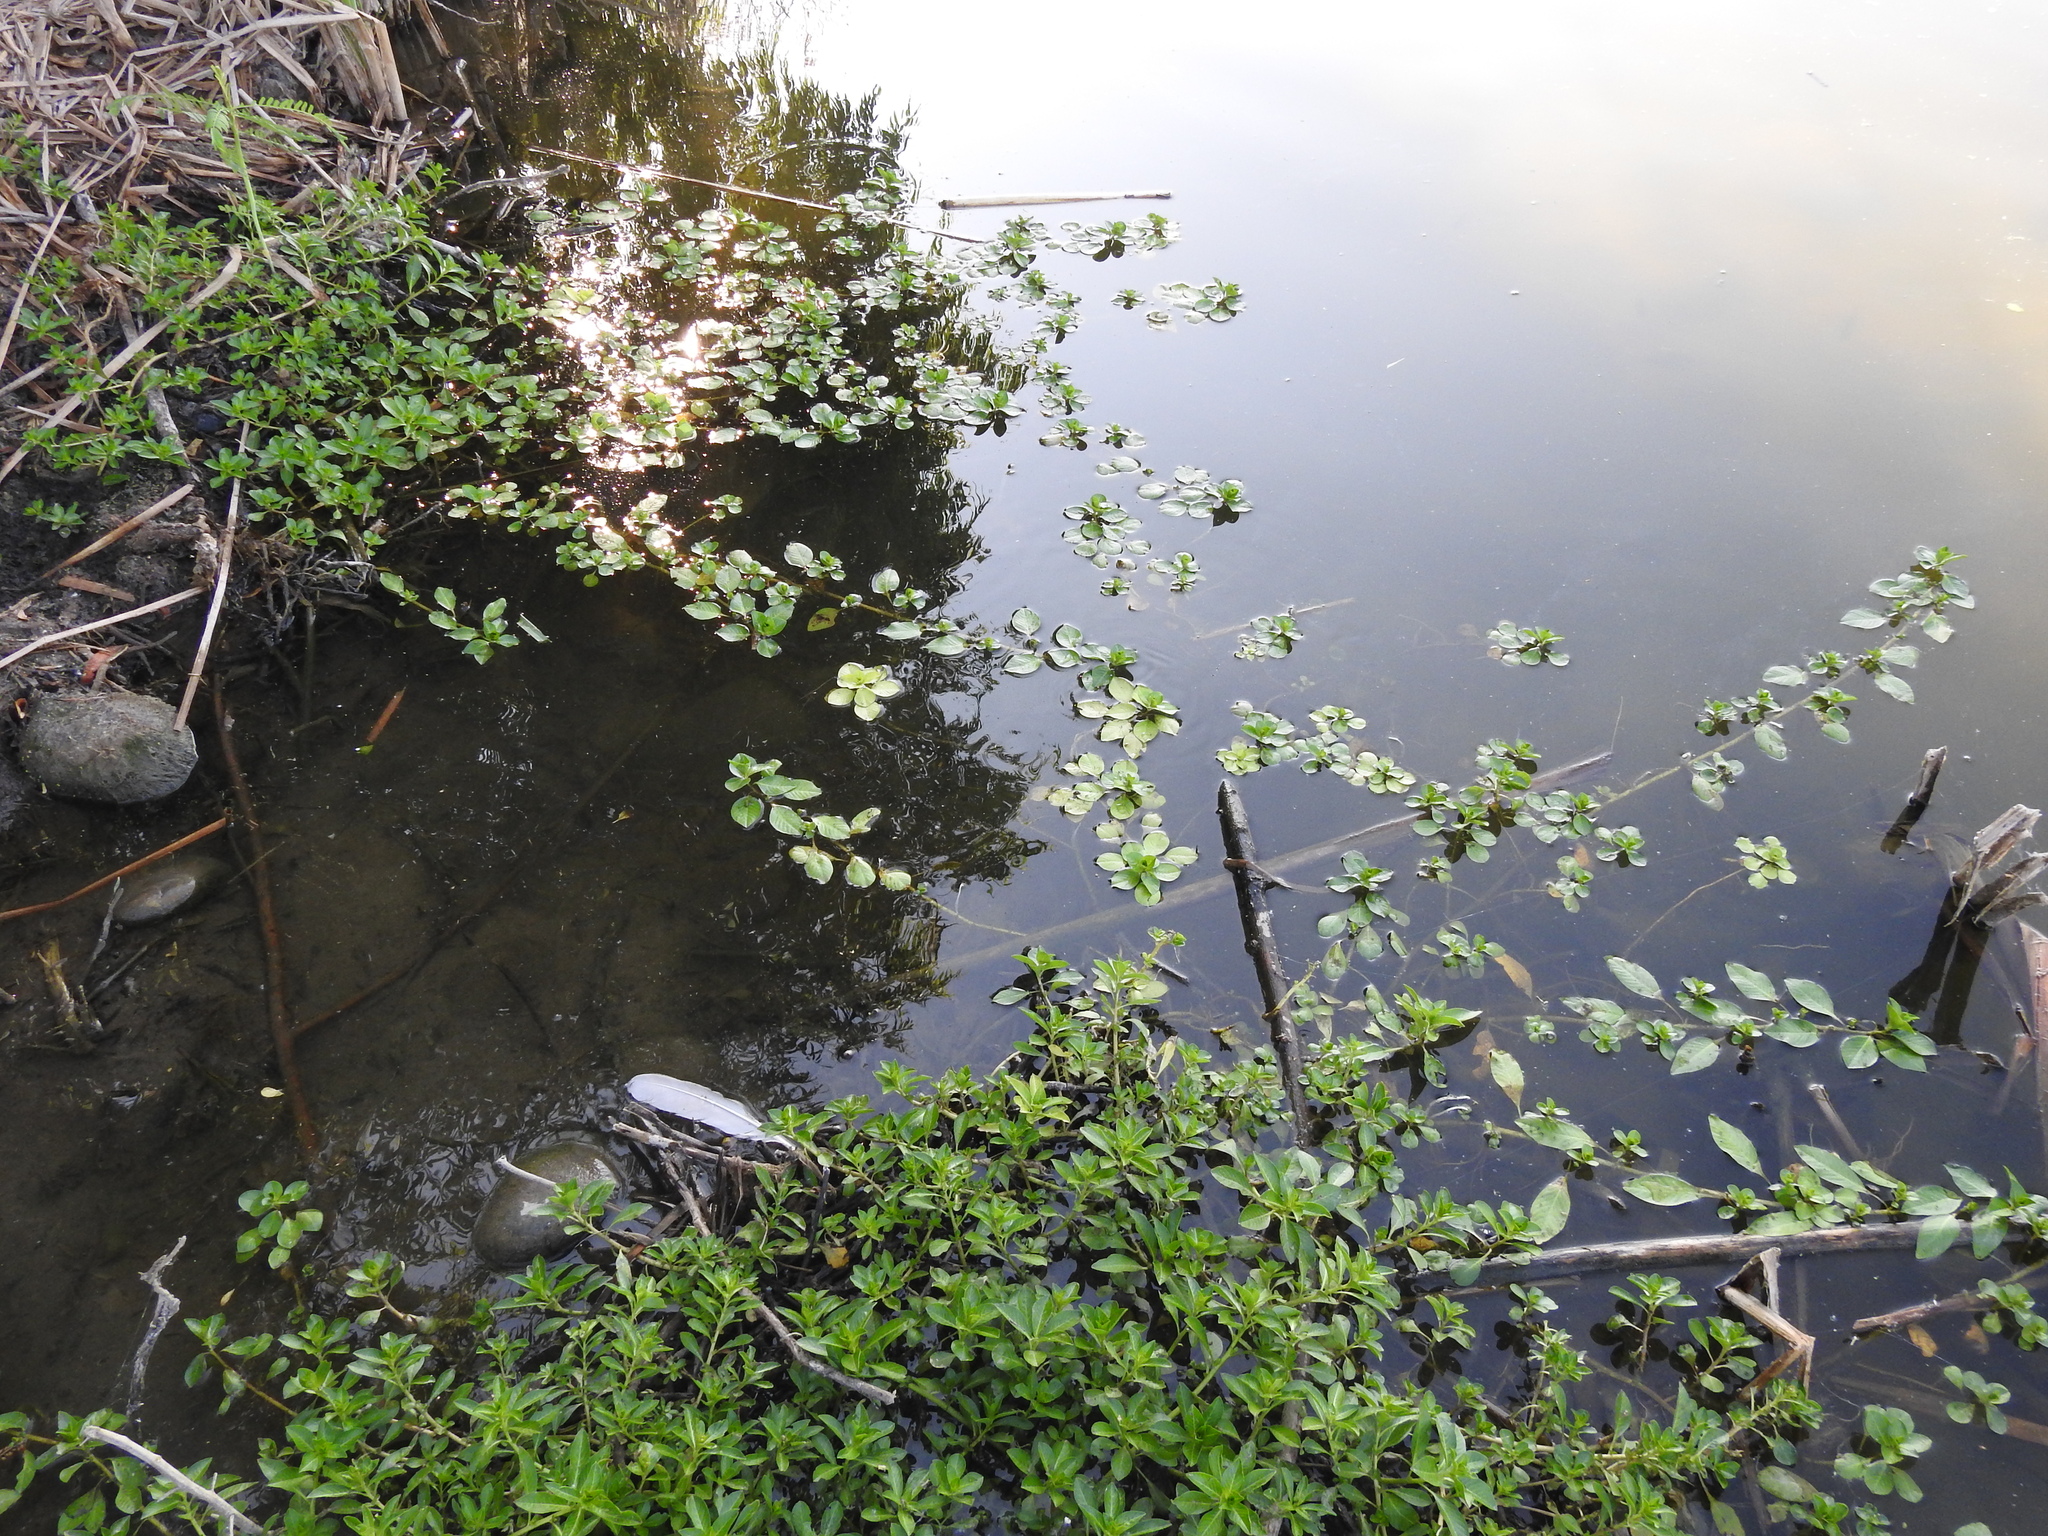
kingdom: Plantae
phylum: Tracheophyta
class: Magnoliopsida
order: Myrtales
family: Onagraceae
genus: Ludwigia
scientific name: Ludwigia peploides
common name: Floating primrose-willow
